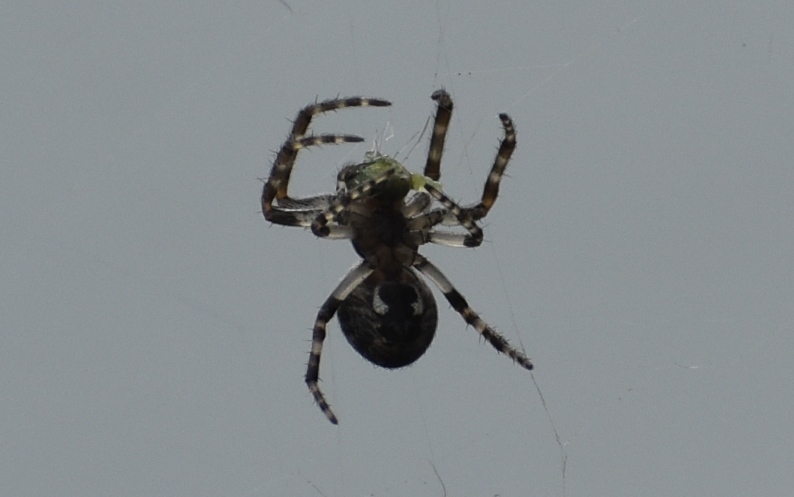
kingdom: Animalia
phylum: Arthropoda
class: Arachnida
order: Araneae
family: Araneidae
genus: Nuctenea
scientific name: Nuctenea umbratica
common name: Toad spider
